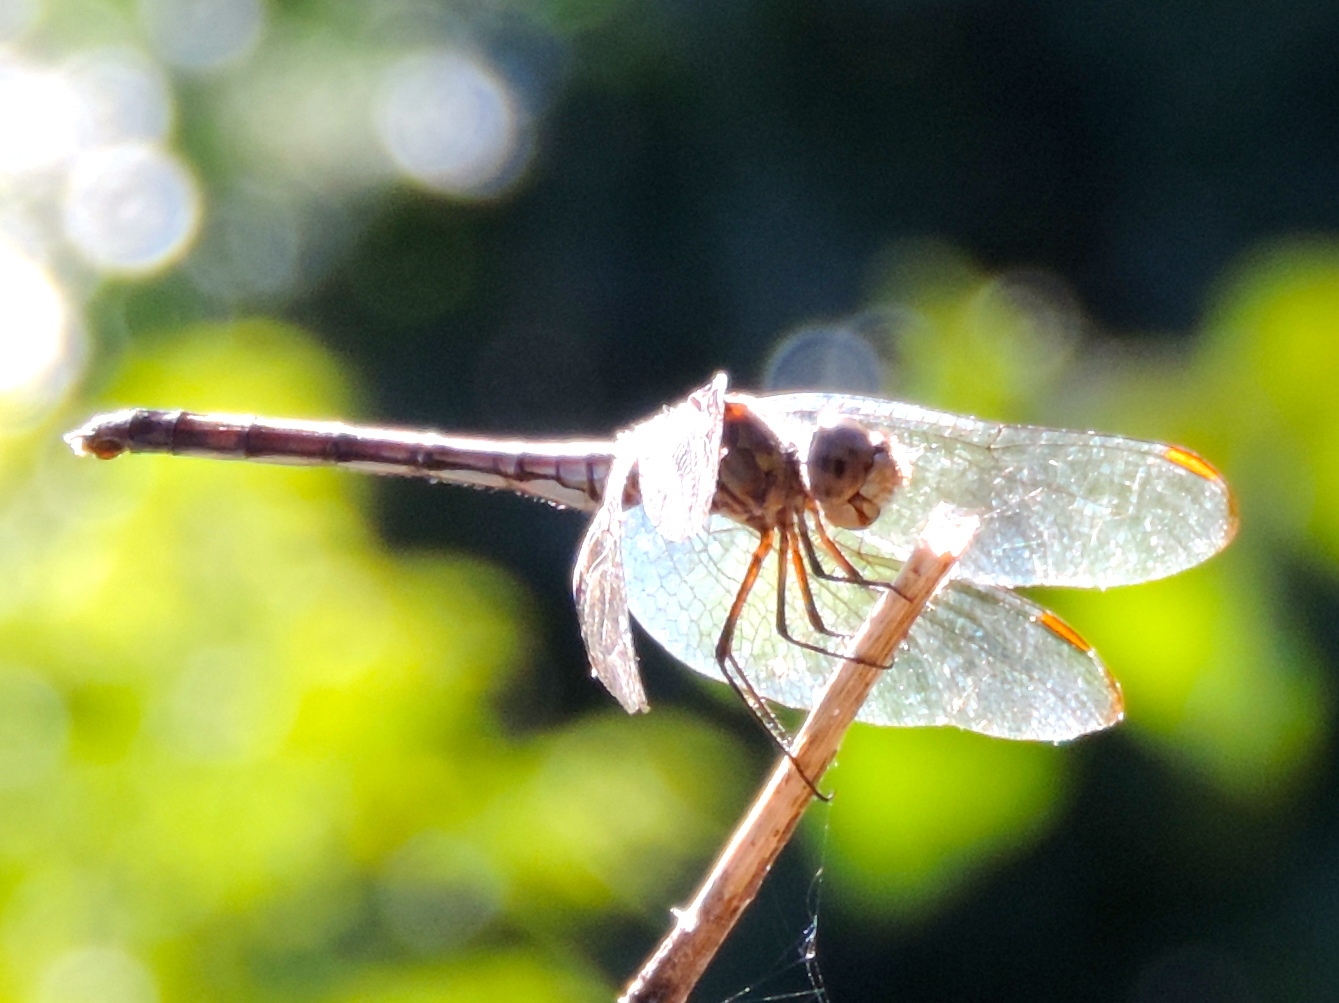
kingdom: Animalia
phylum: Arthropoda
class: Insecta
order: Odonata
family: Libellulidae
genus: Dythemis
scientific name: Dythemis nigrescens
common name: Black setwing
